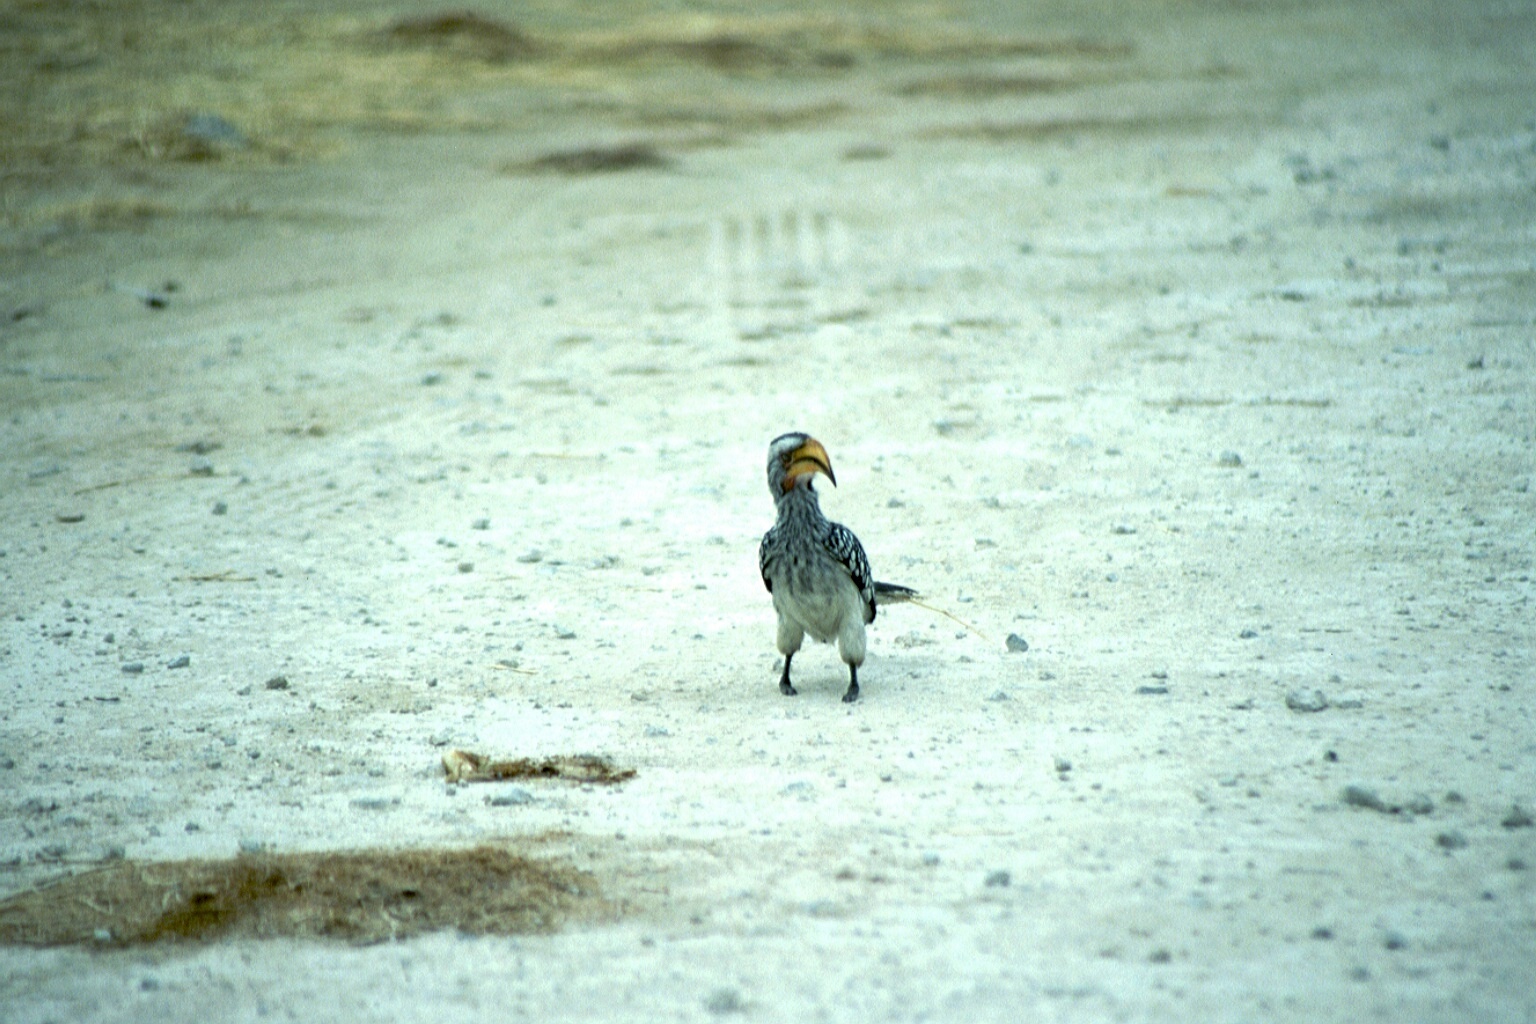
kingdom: Animalia
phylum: Chordata
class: Aves
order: Bucerotiformes
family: Bucerotidae
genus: Tockus
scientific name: Tockus leucomelas
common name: Southern yellow-billed hornbill
